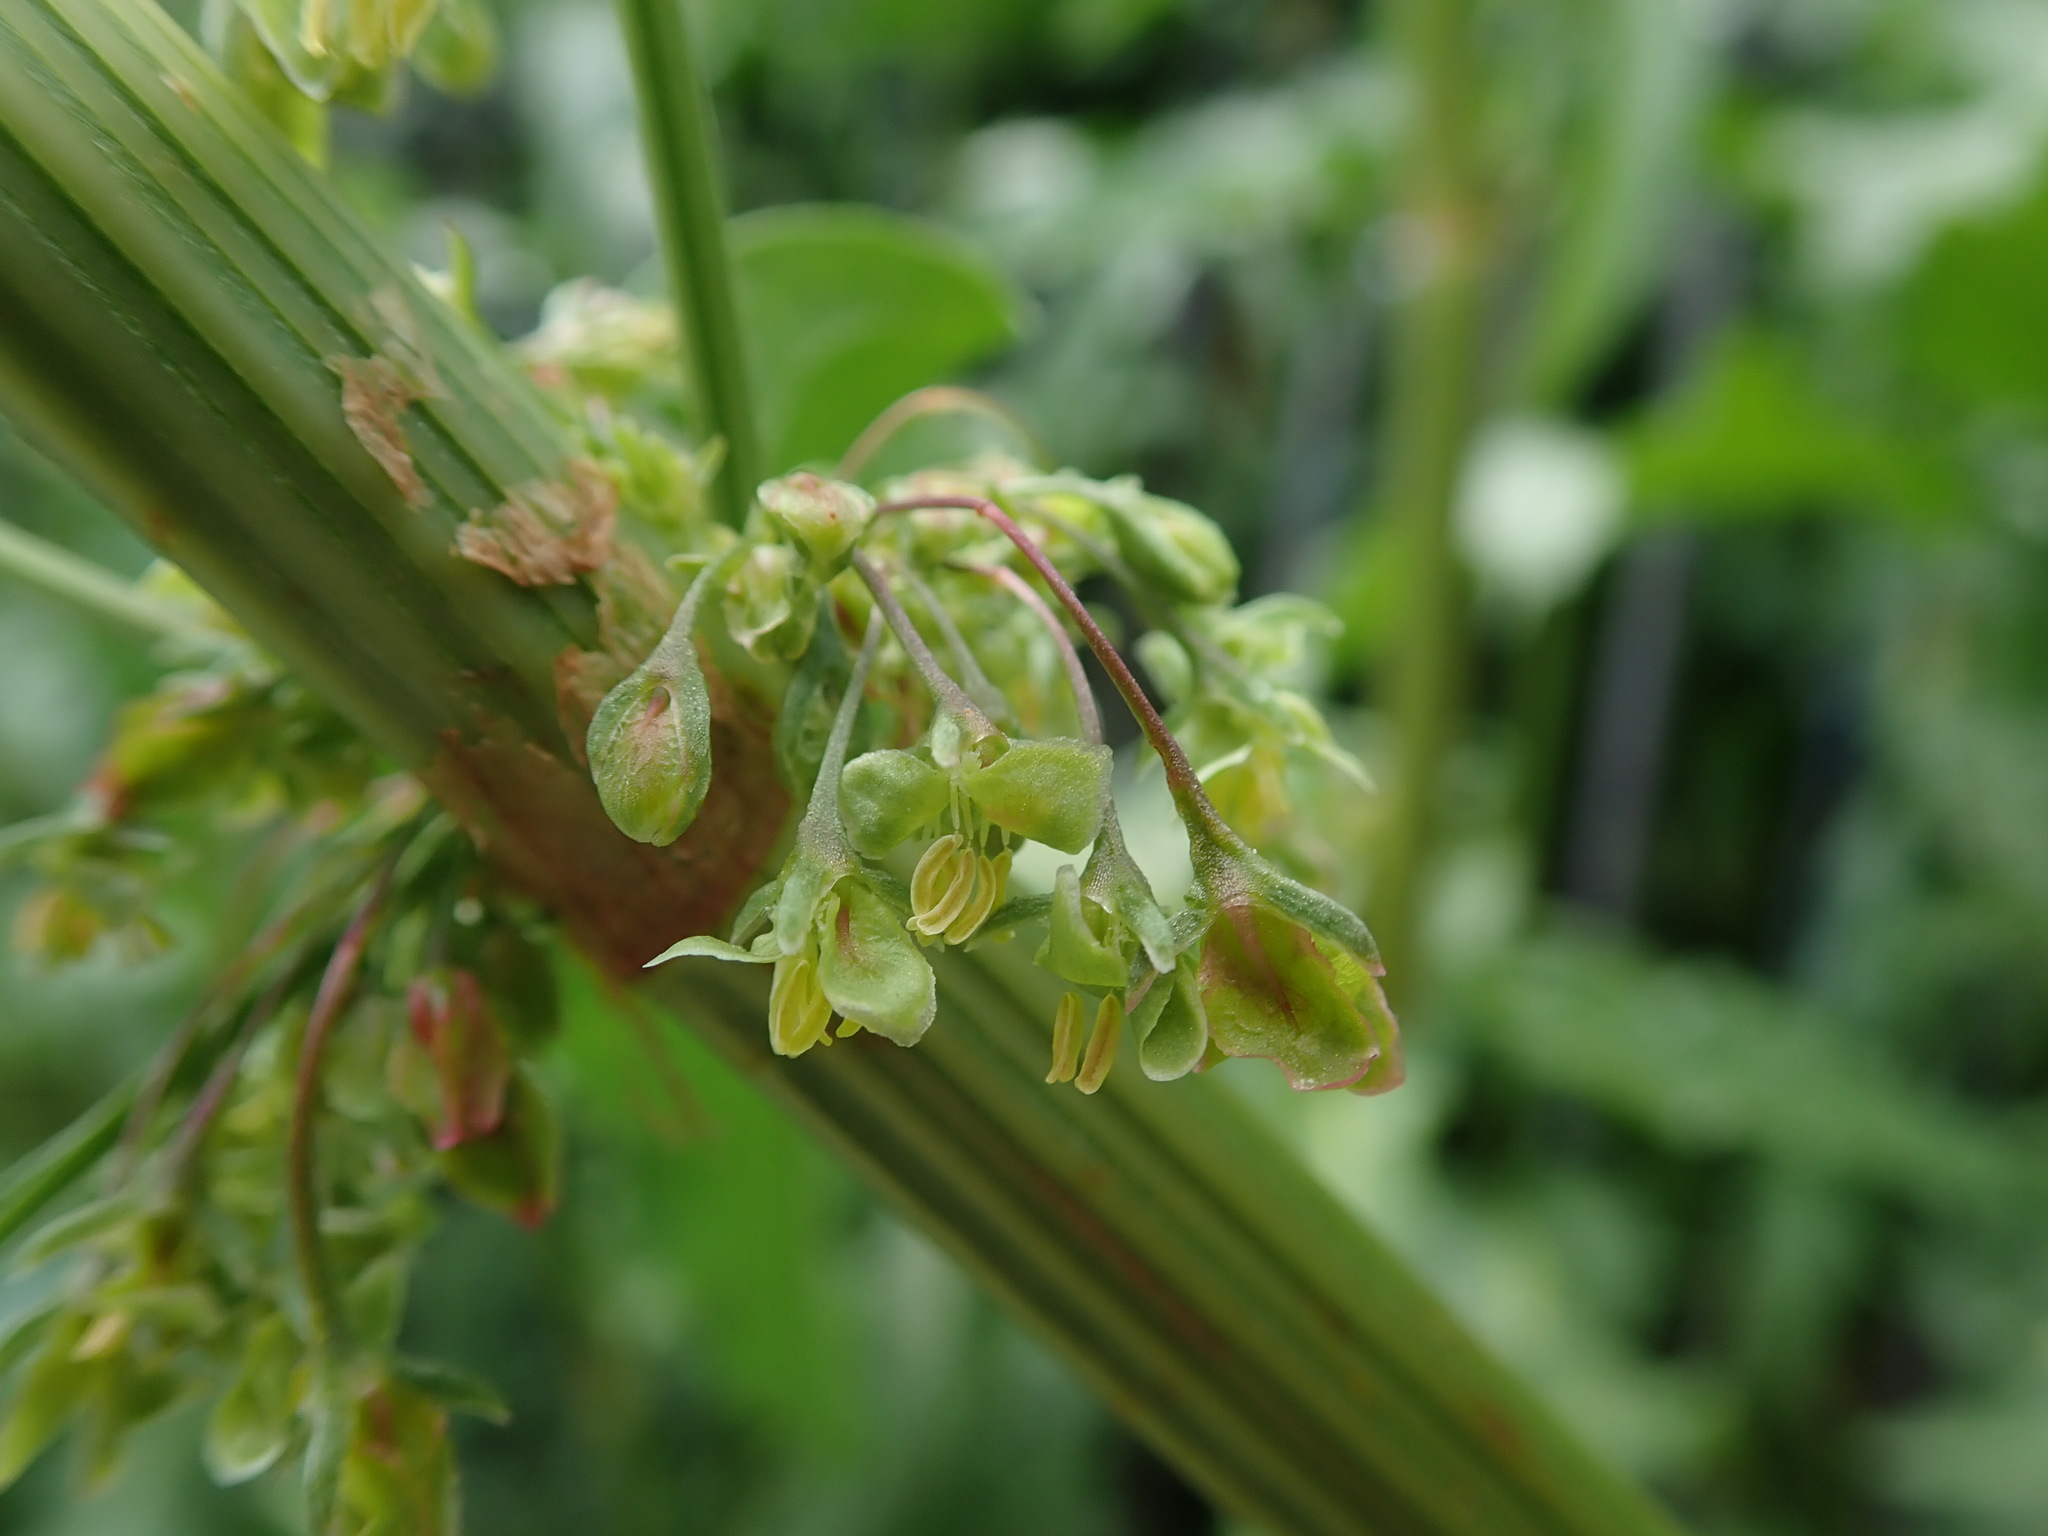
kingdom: Plantae
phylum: Tracheophyta
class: Magnoliopsida
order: Caryophyllales
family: Polygonaceae
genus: Rumex
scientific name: Rumex cristatus
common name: Greek dock
